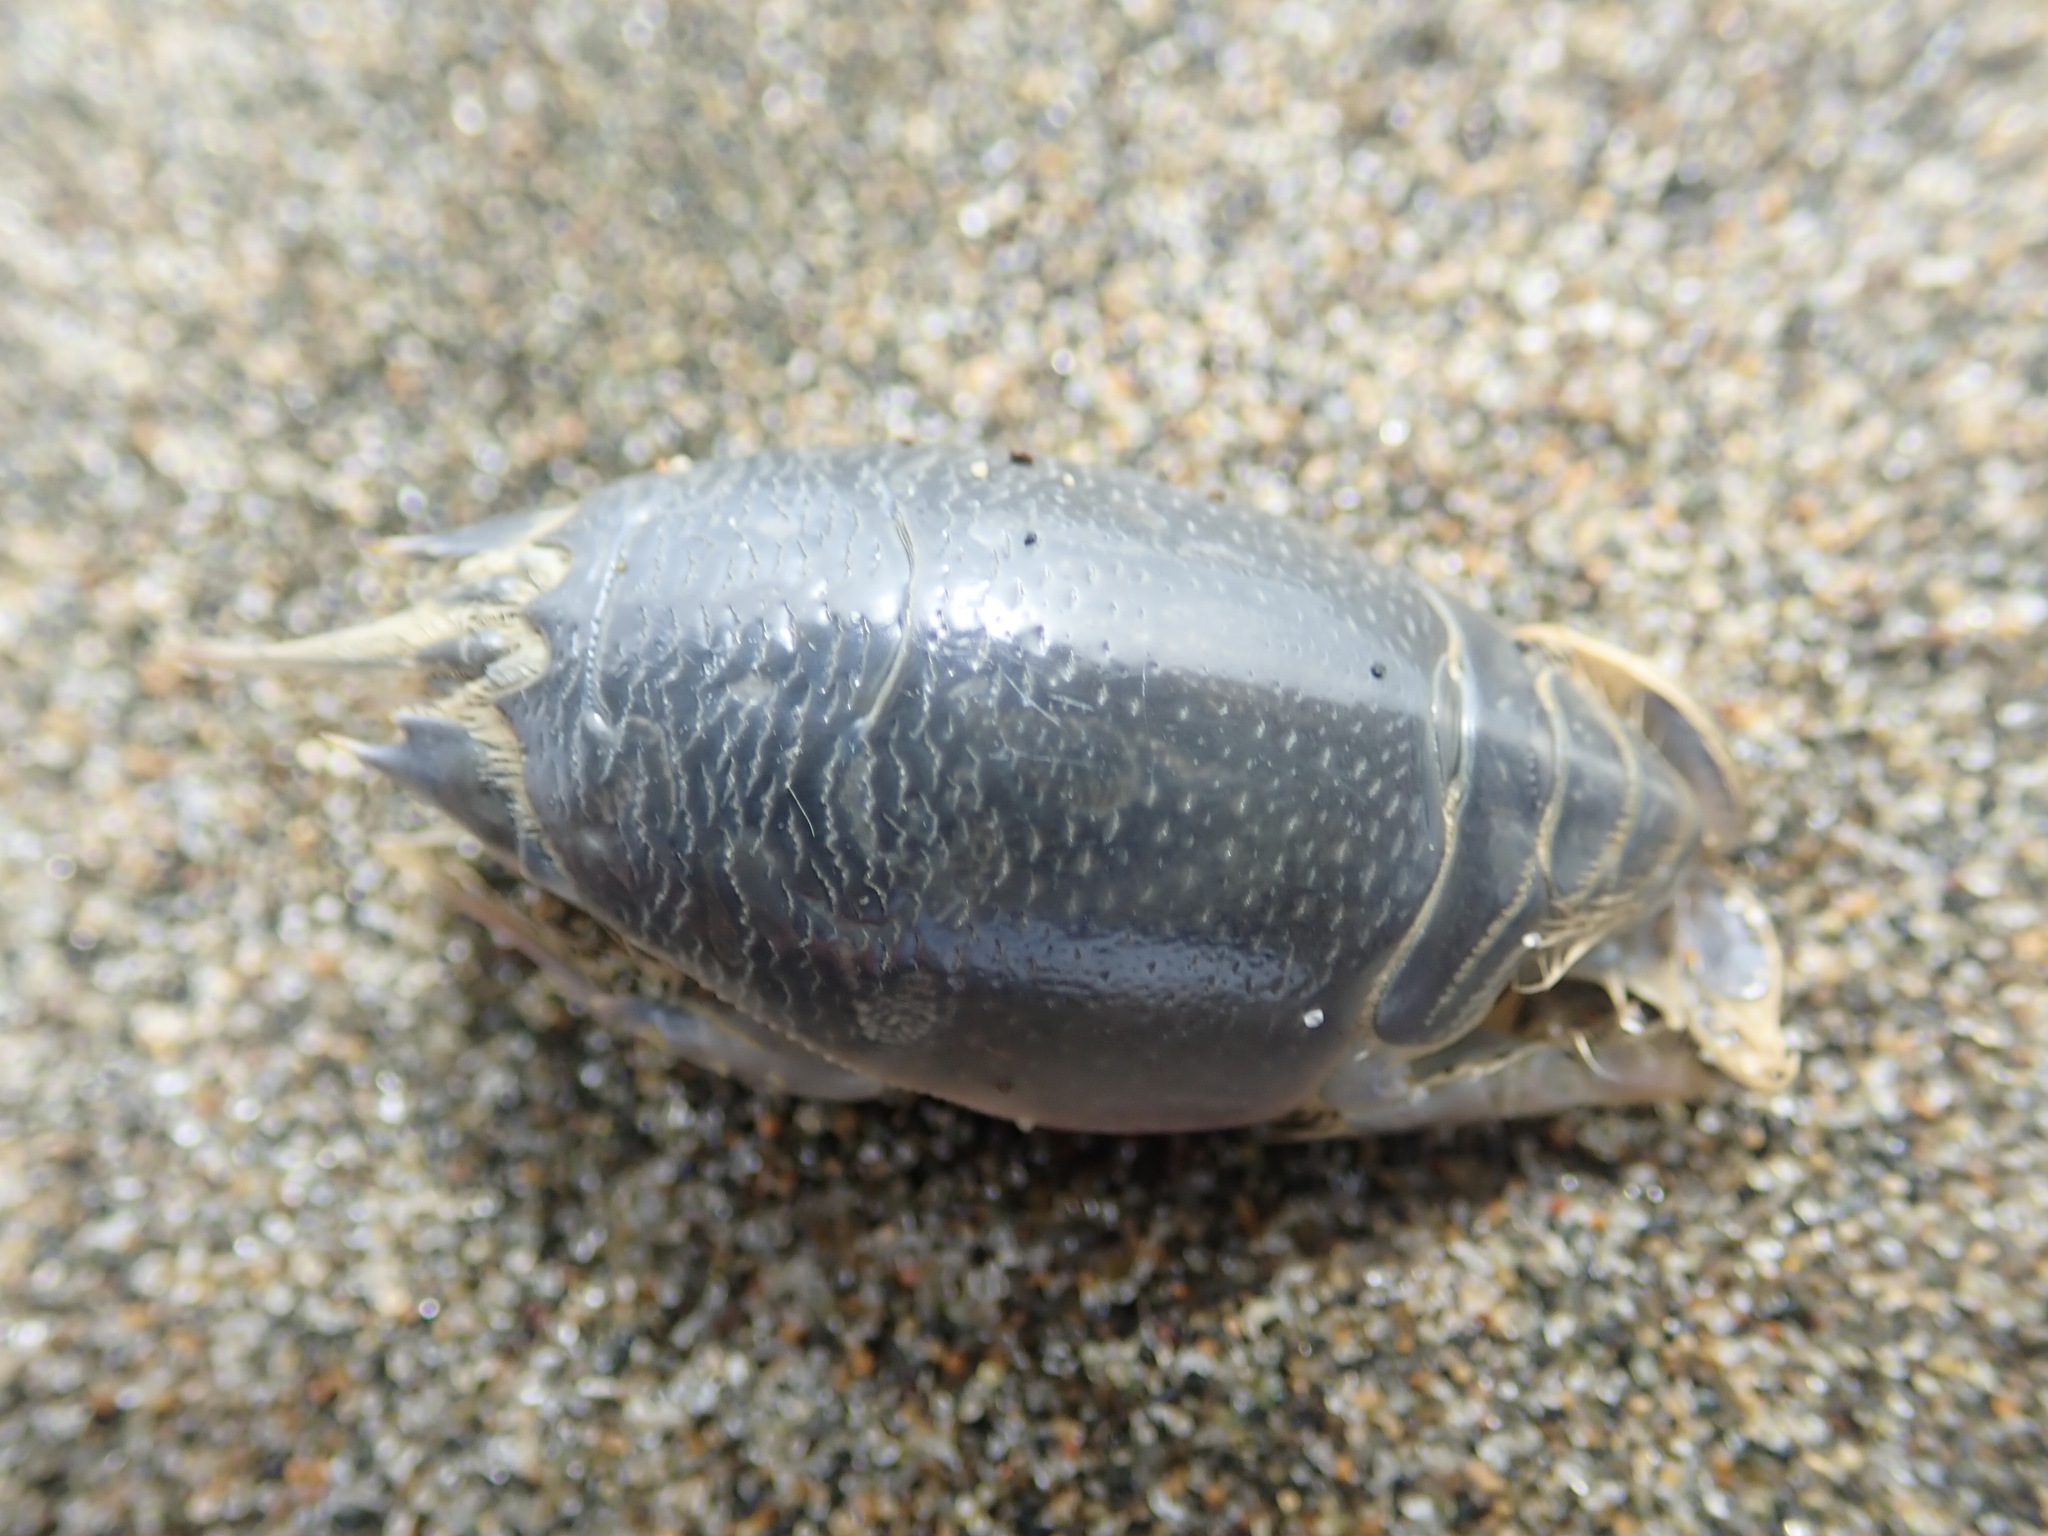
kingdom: Animalia
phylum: Arthropoda
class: Malacostraca
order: Decapoda
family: Hippidae
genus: Emerita
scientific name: Emerita analoga
